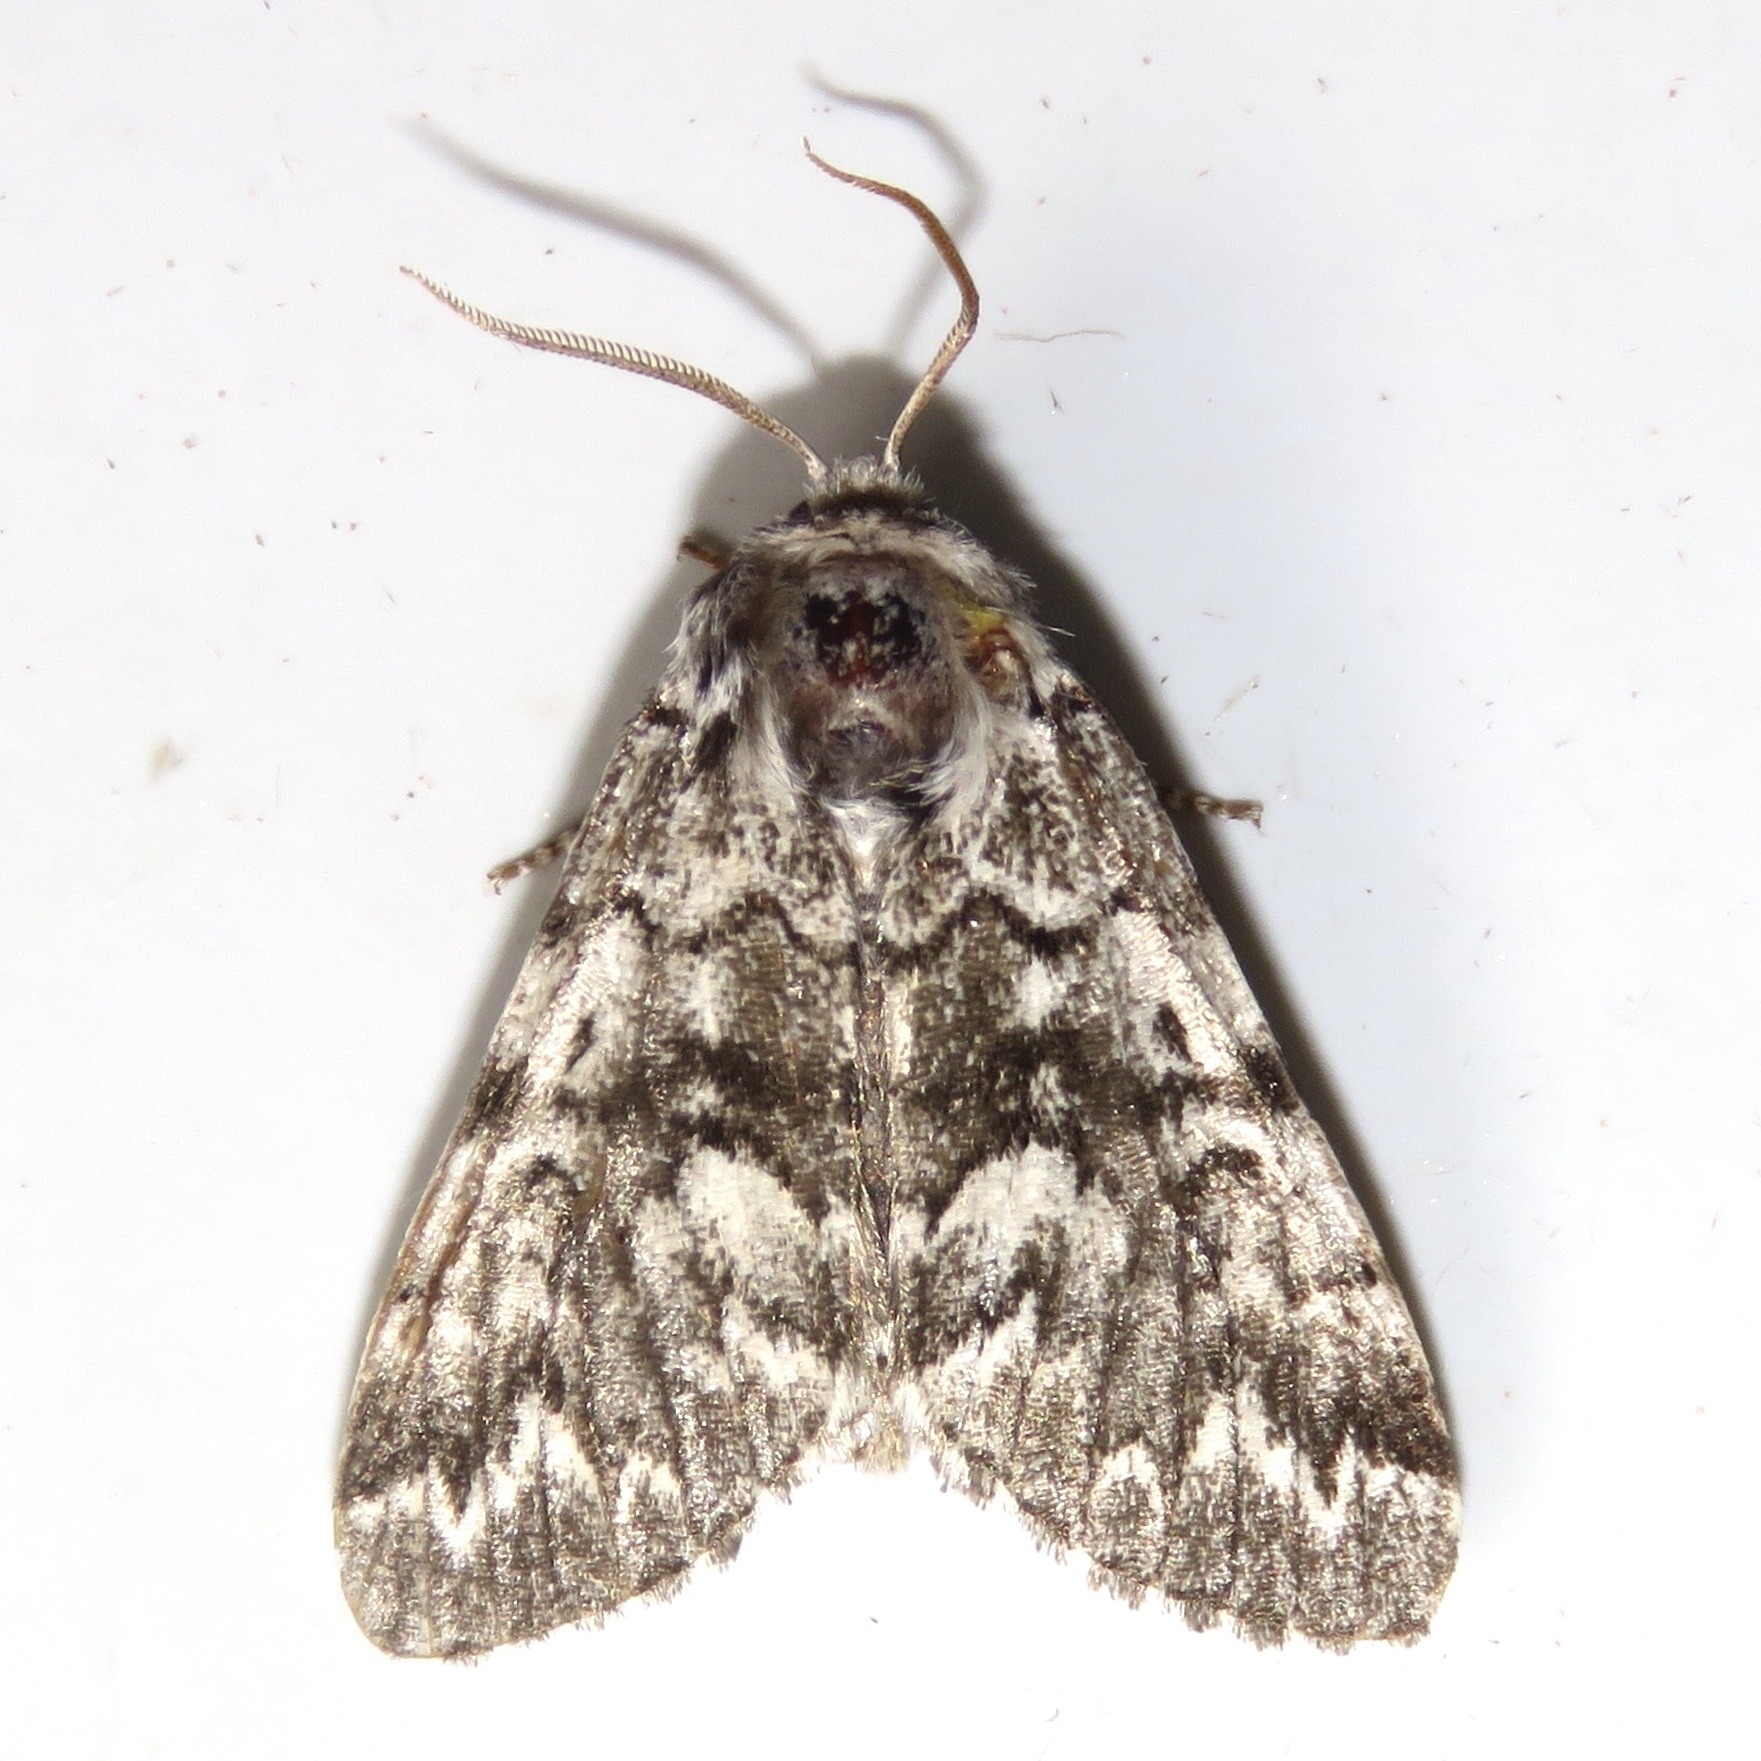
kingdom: Animalia
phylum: Arthropoda
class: Insecta
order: Lepidoptera
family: Noctuidae
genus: Panthea
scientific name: Panthea acronyctoides
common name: Black zigzag moth
